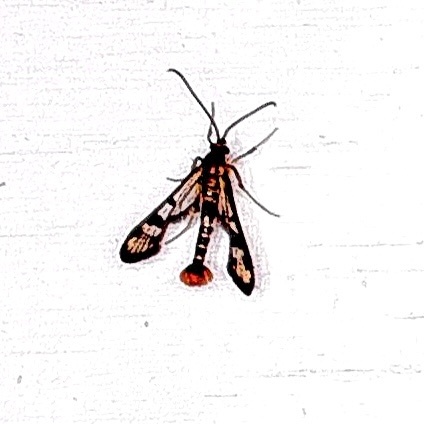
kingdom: Animalia
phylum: Arthropoda
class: Insecta
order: Lepidoptera
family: Sesiidae
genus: Synanthedon
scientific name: Synanthedon acerni
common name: Maple callus borer moth
